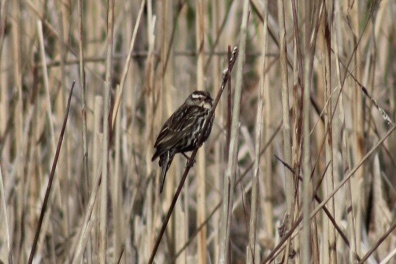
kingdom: Animalia
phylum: Chordata
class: Aves
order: Passeriformes
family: Icteridae
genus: Agelaius
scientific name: Agelaius phoeniceus
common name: Red-winged blackbird
